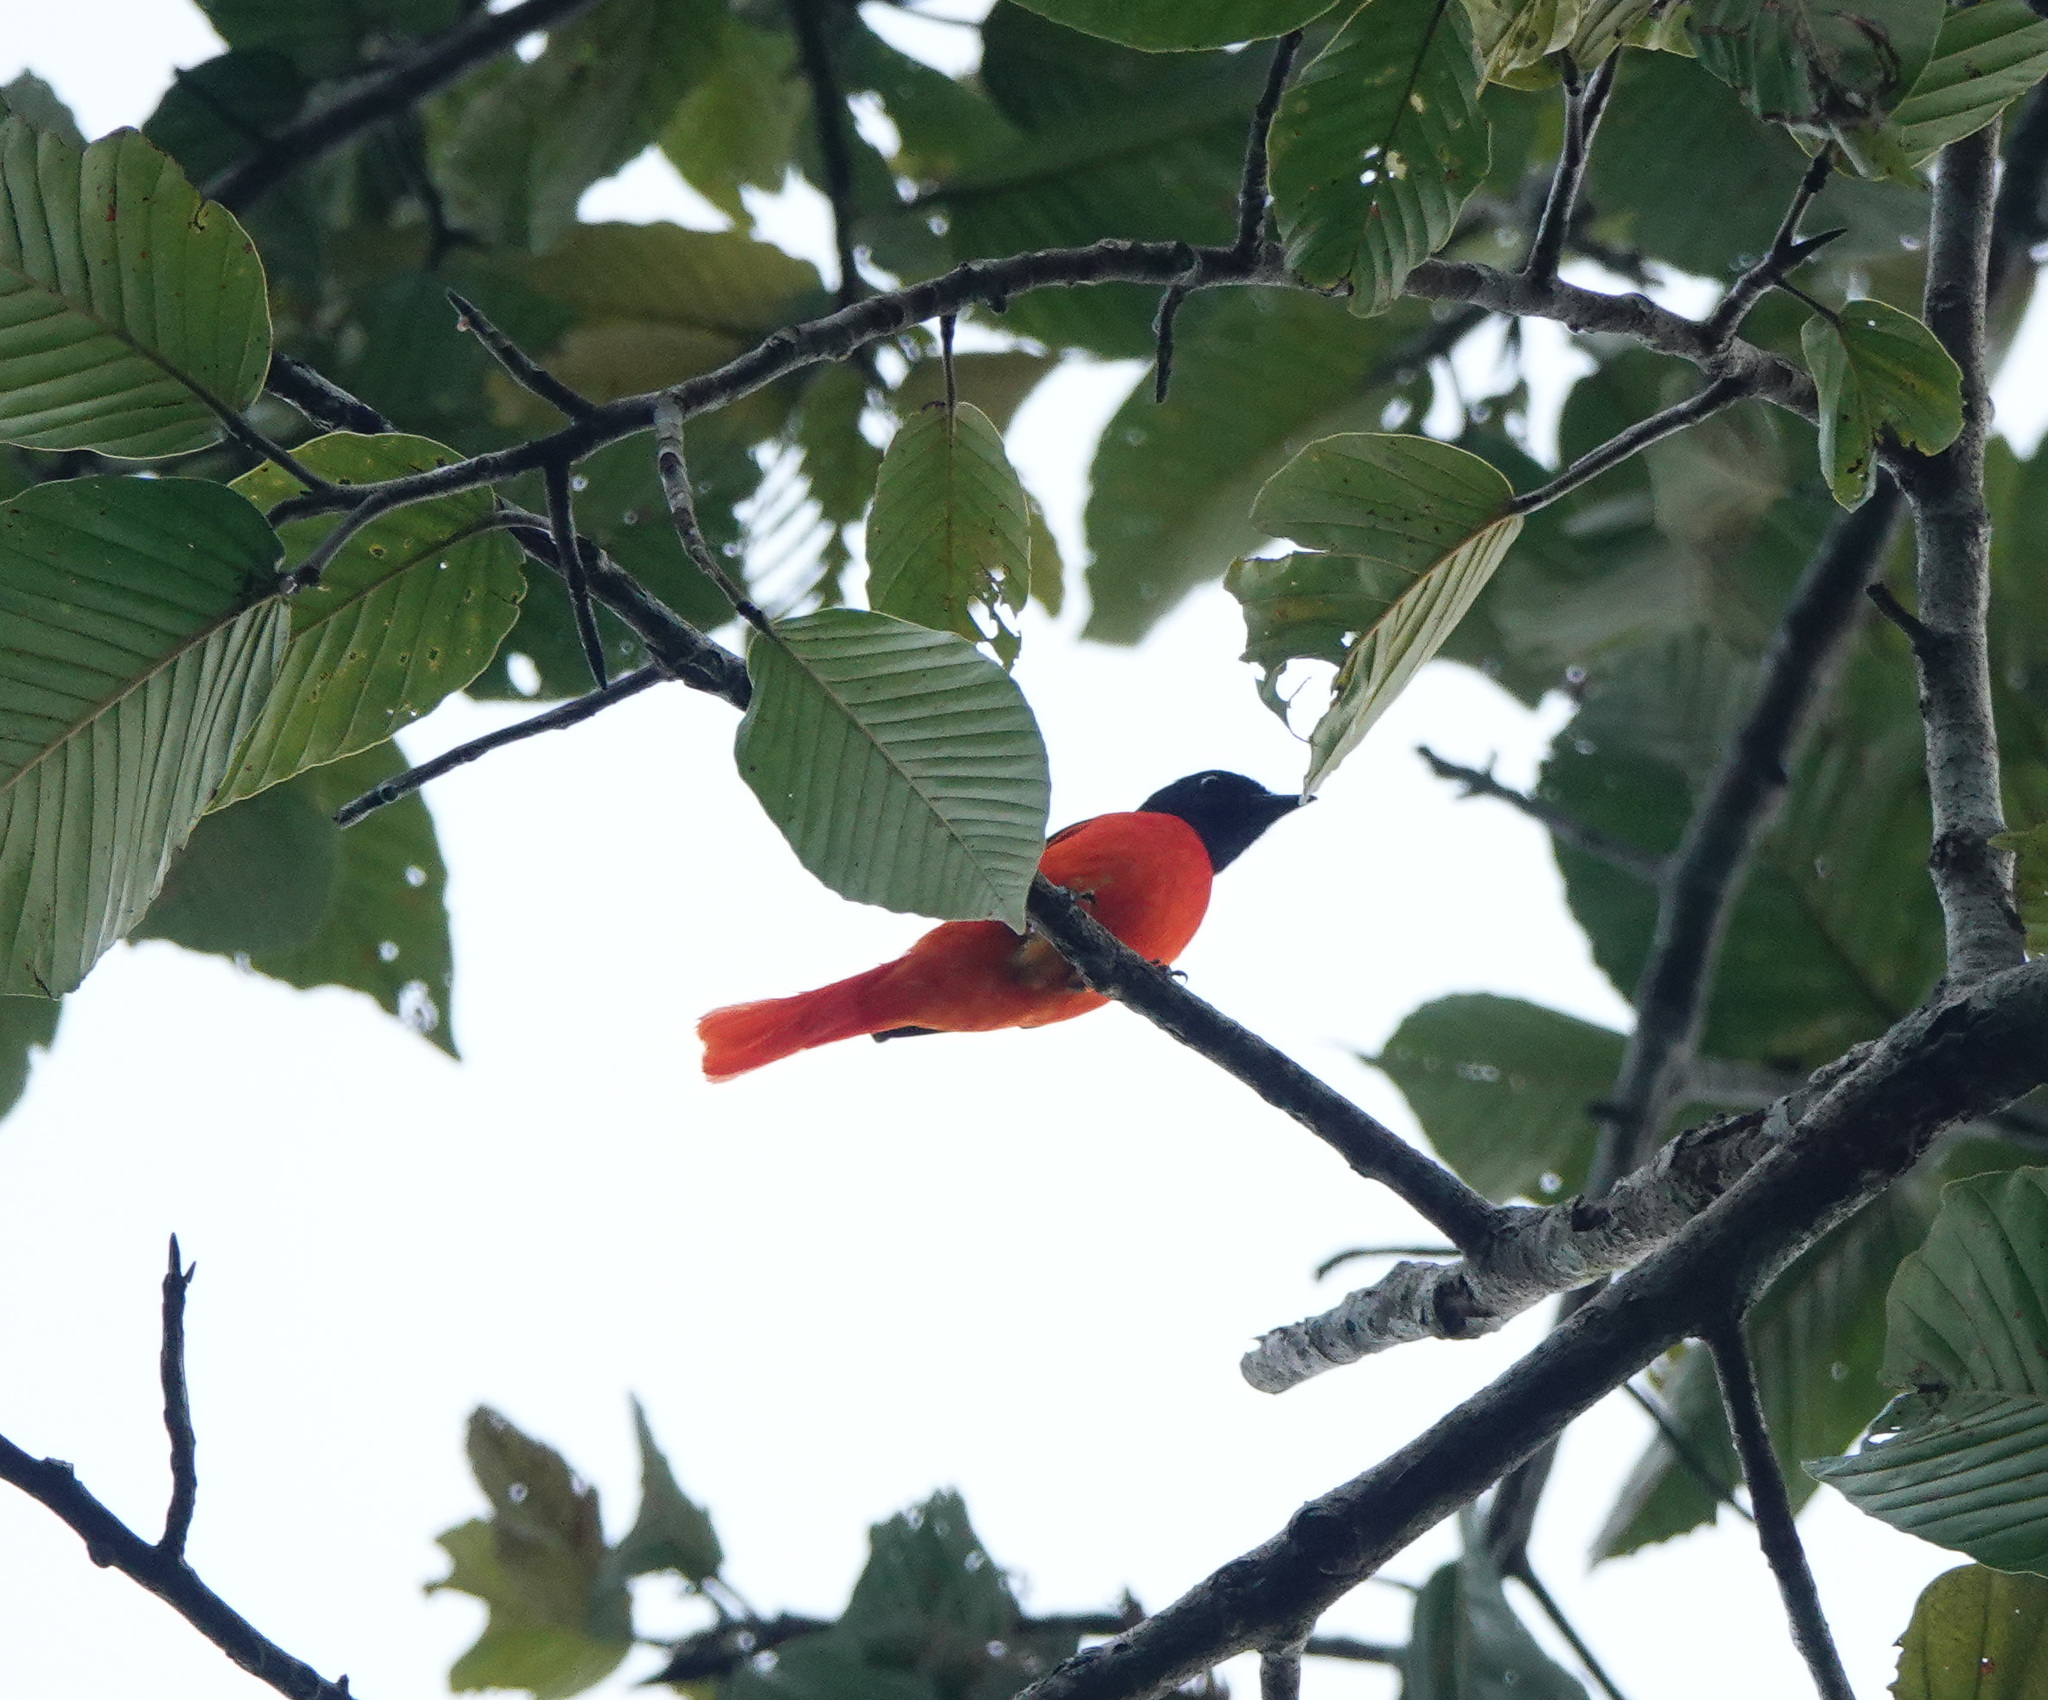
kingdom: Animalia
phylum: Chordata
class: Aves
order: Passeriformes
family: Campephagidae
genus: Pericrocotus
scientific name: Pericrocotus speciosus
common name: Scarlet minivet
